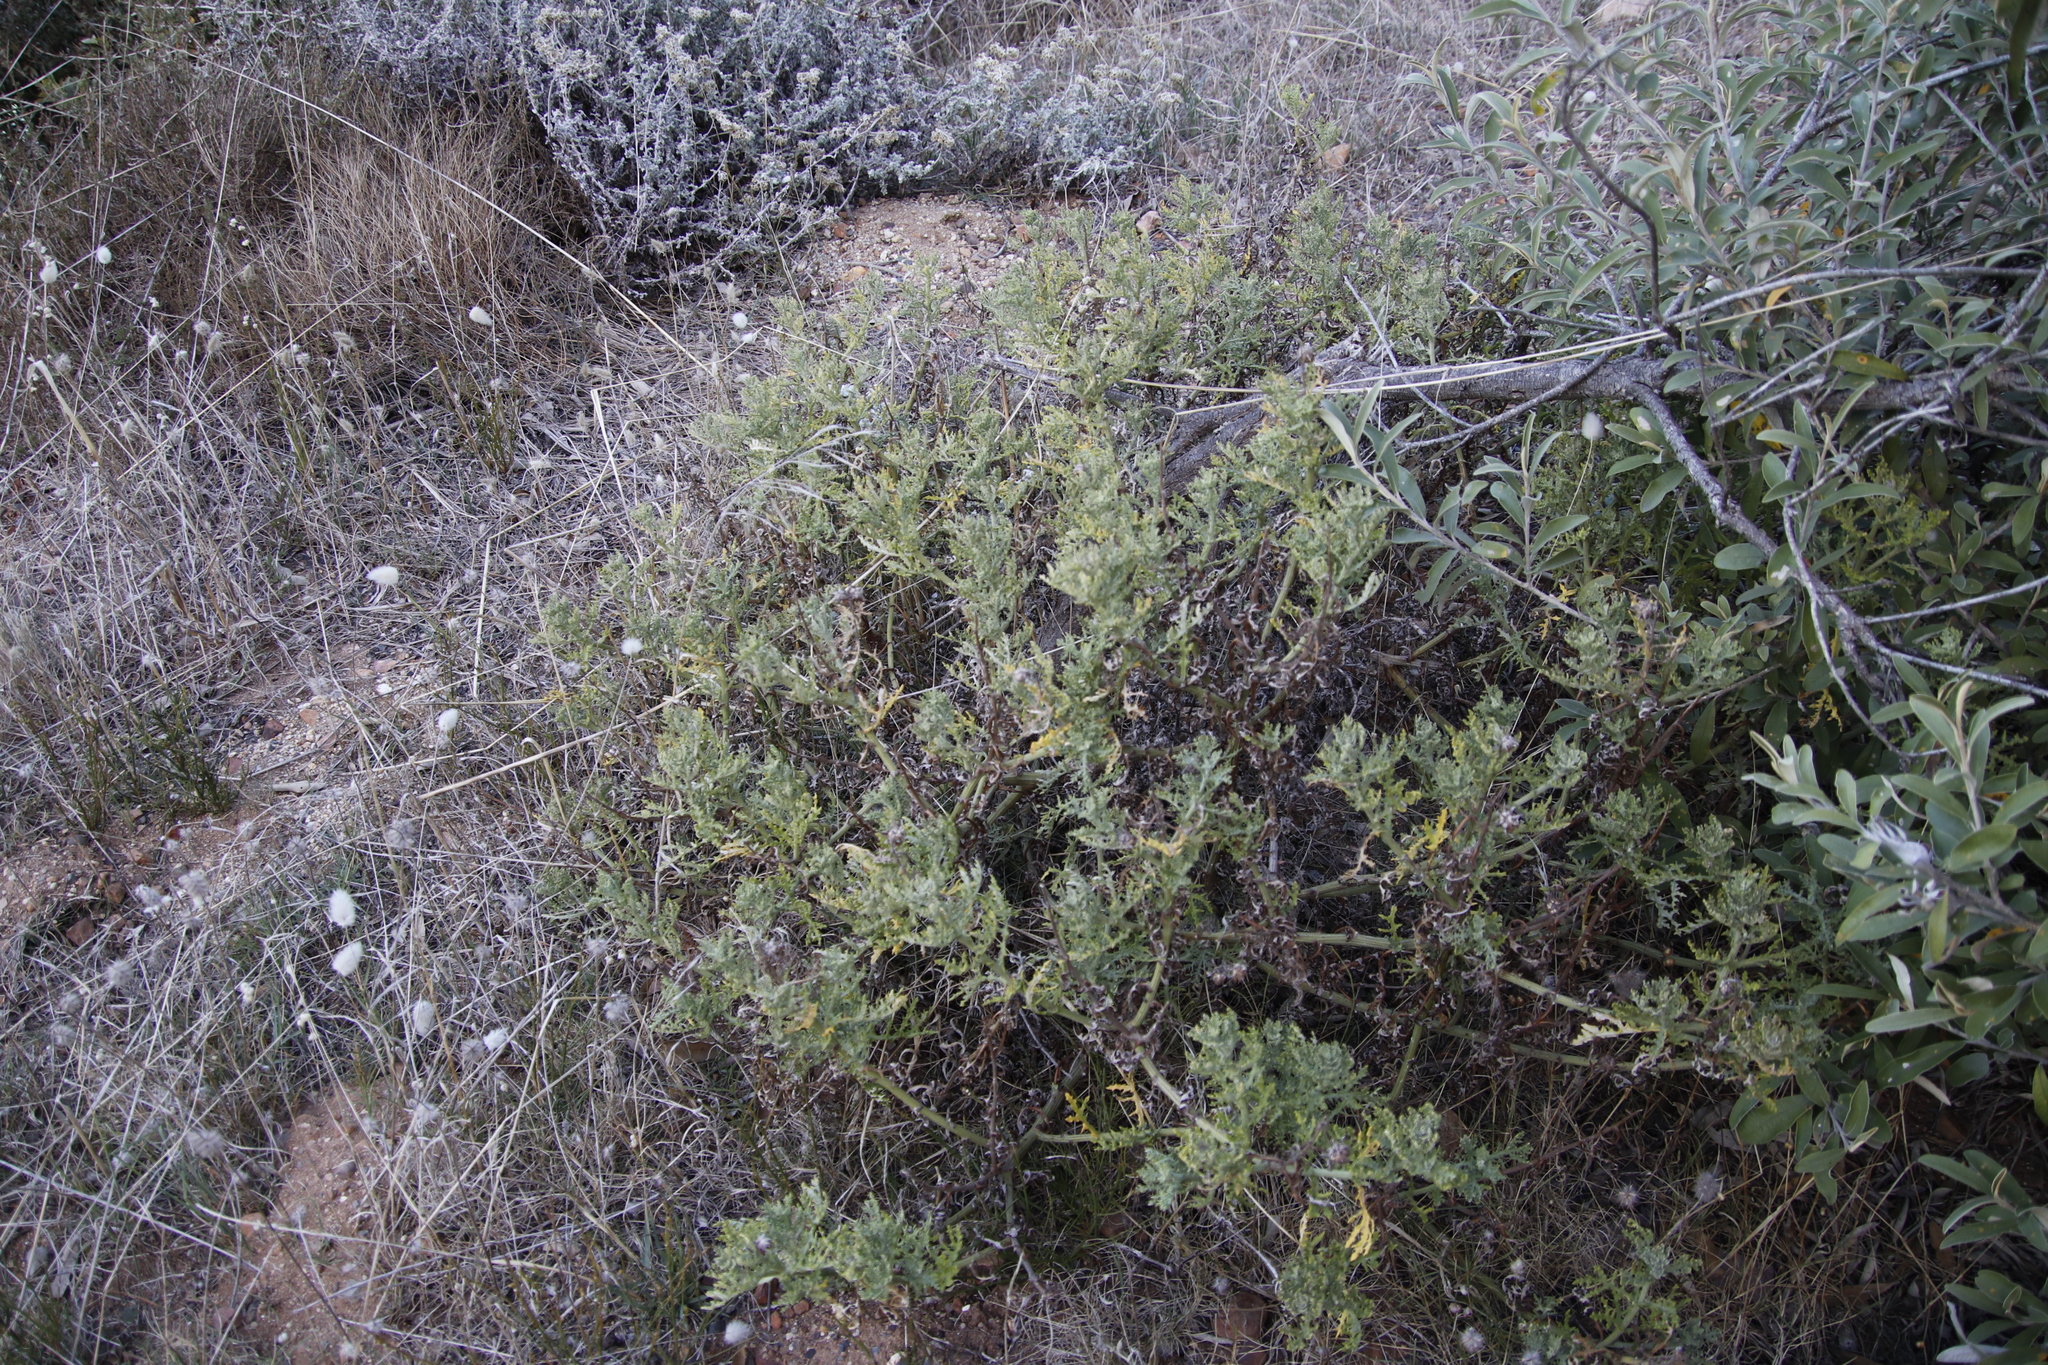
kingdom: Plantae
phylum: Tracheophyta
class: Magnoliopsida
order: Asterales
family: Asteraceae
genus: Arctotis
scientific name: Arctotis aspera
